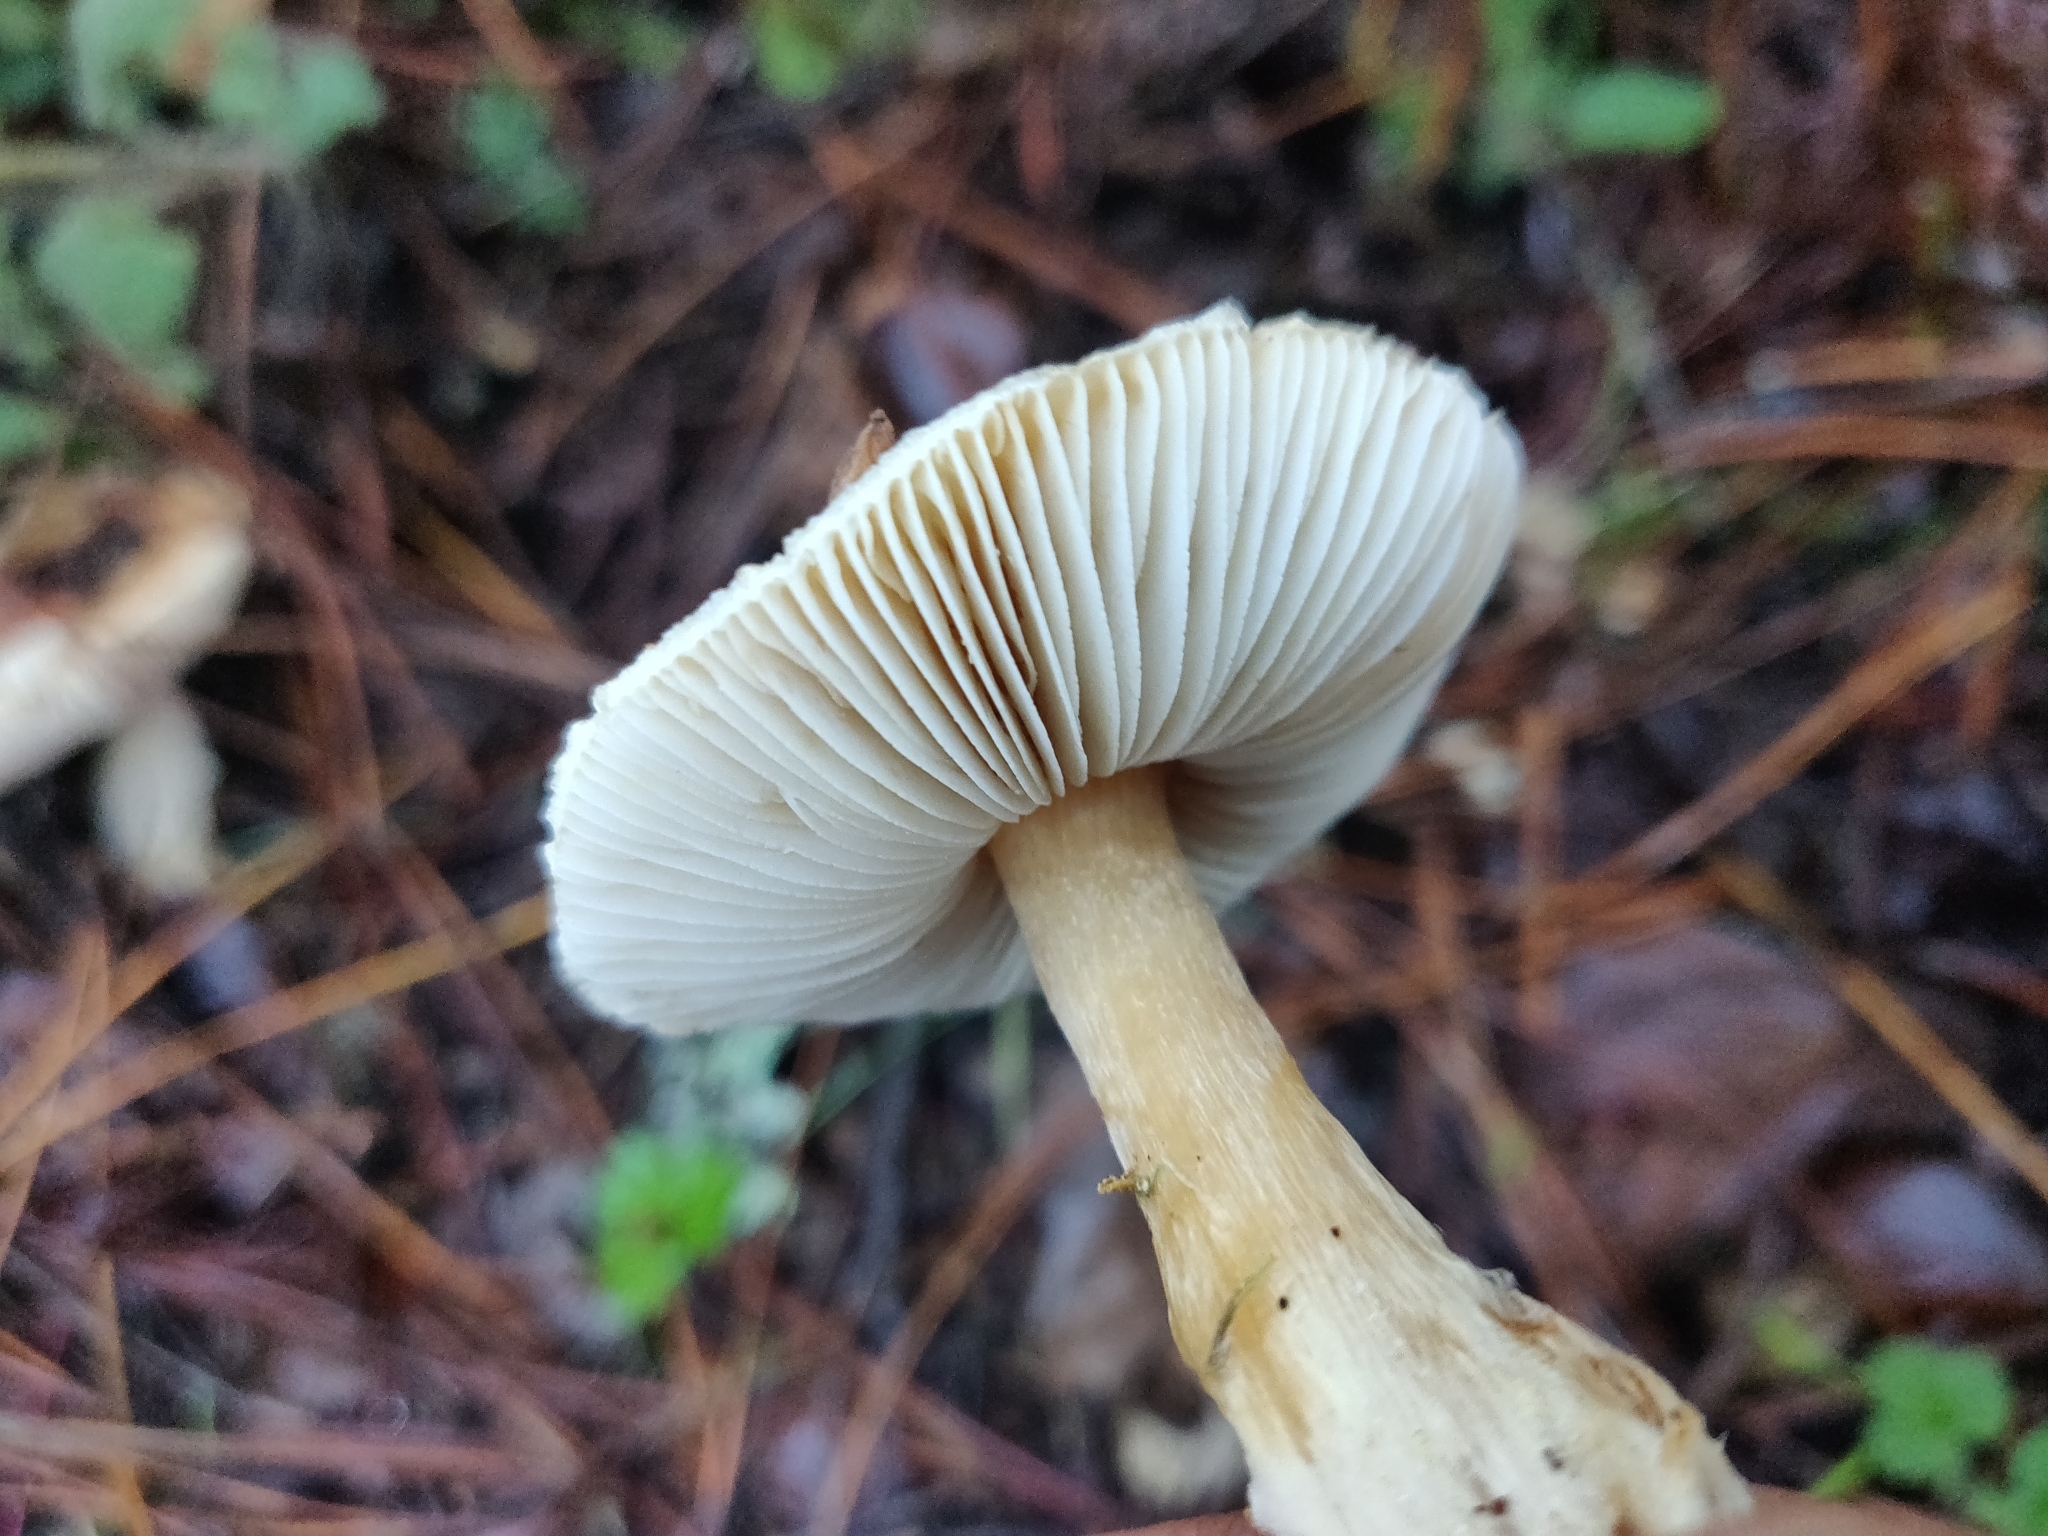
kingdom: Fungi
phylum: Basidiomycota
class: Agaricomycetes
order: Agaricales
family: Agaricaceae
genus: Lepiota
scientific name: Lepiota spheniscispora
